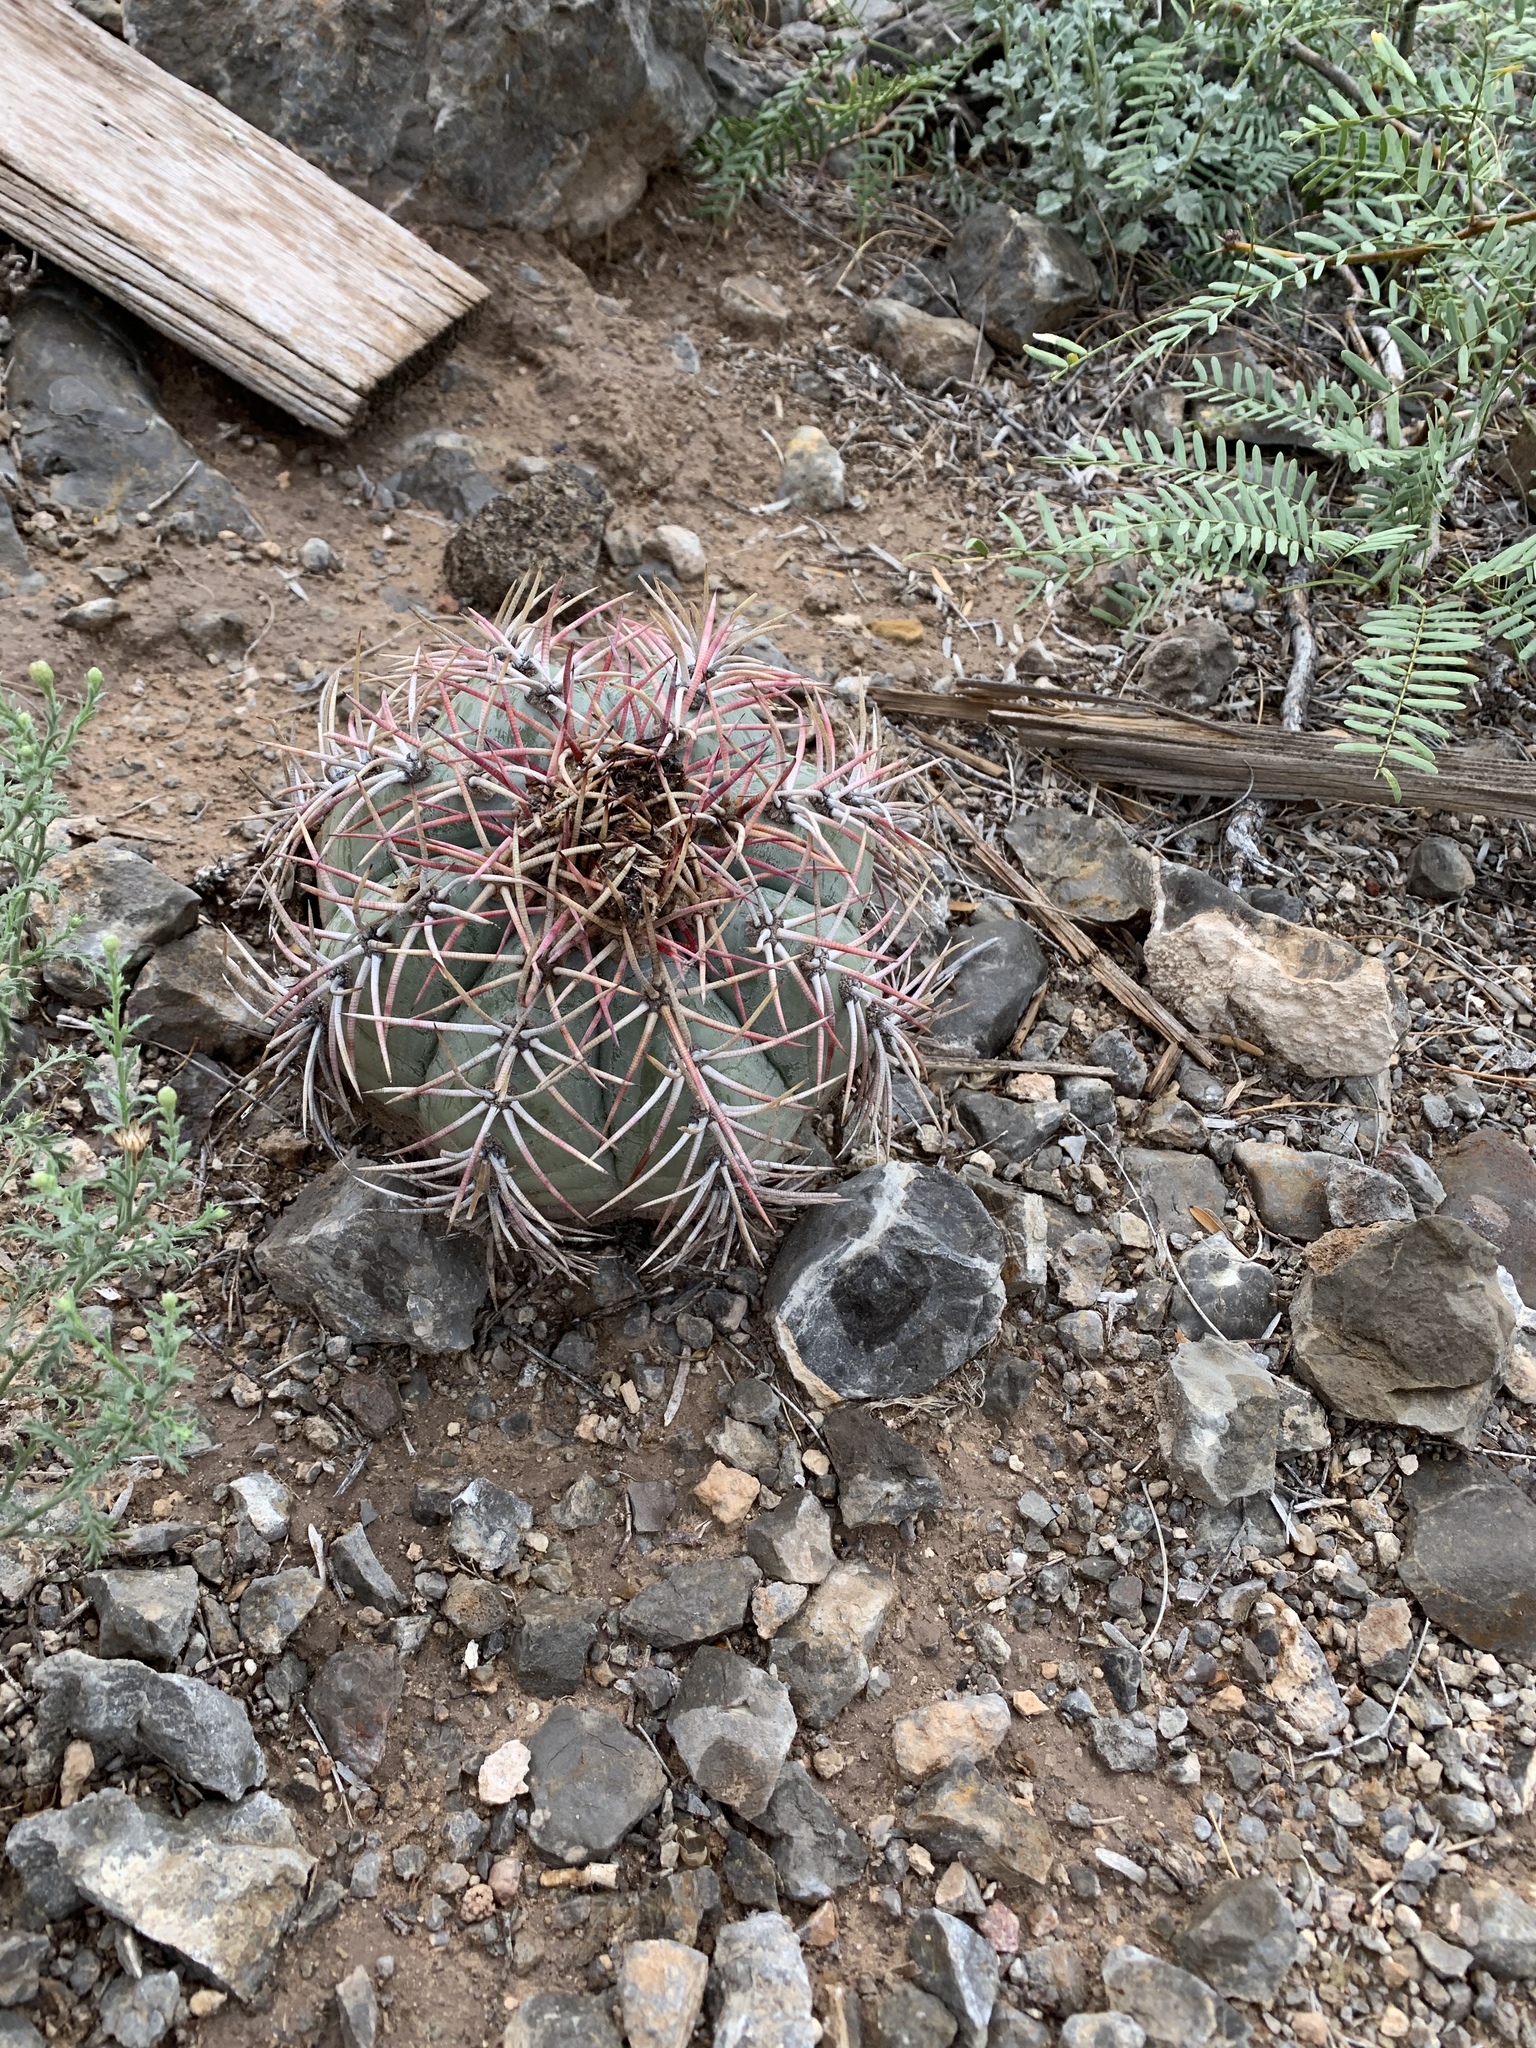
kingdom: Plantae
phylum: Tracheophyta
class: Magnoliopsida
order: Caryophyllales
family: Cactaceae
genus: Echinocactus
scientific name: Echinocactus horizonthalonius
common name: Devilshead
